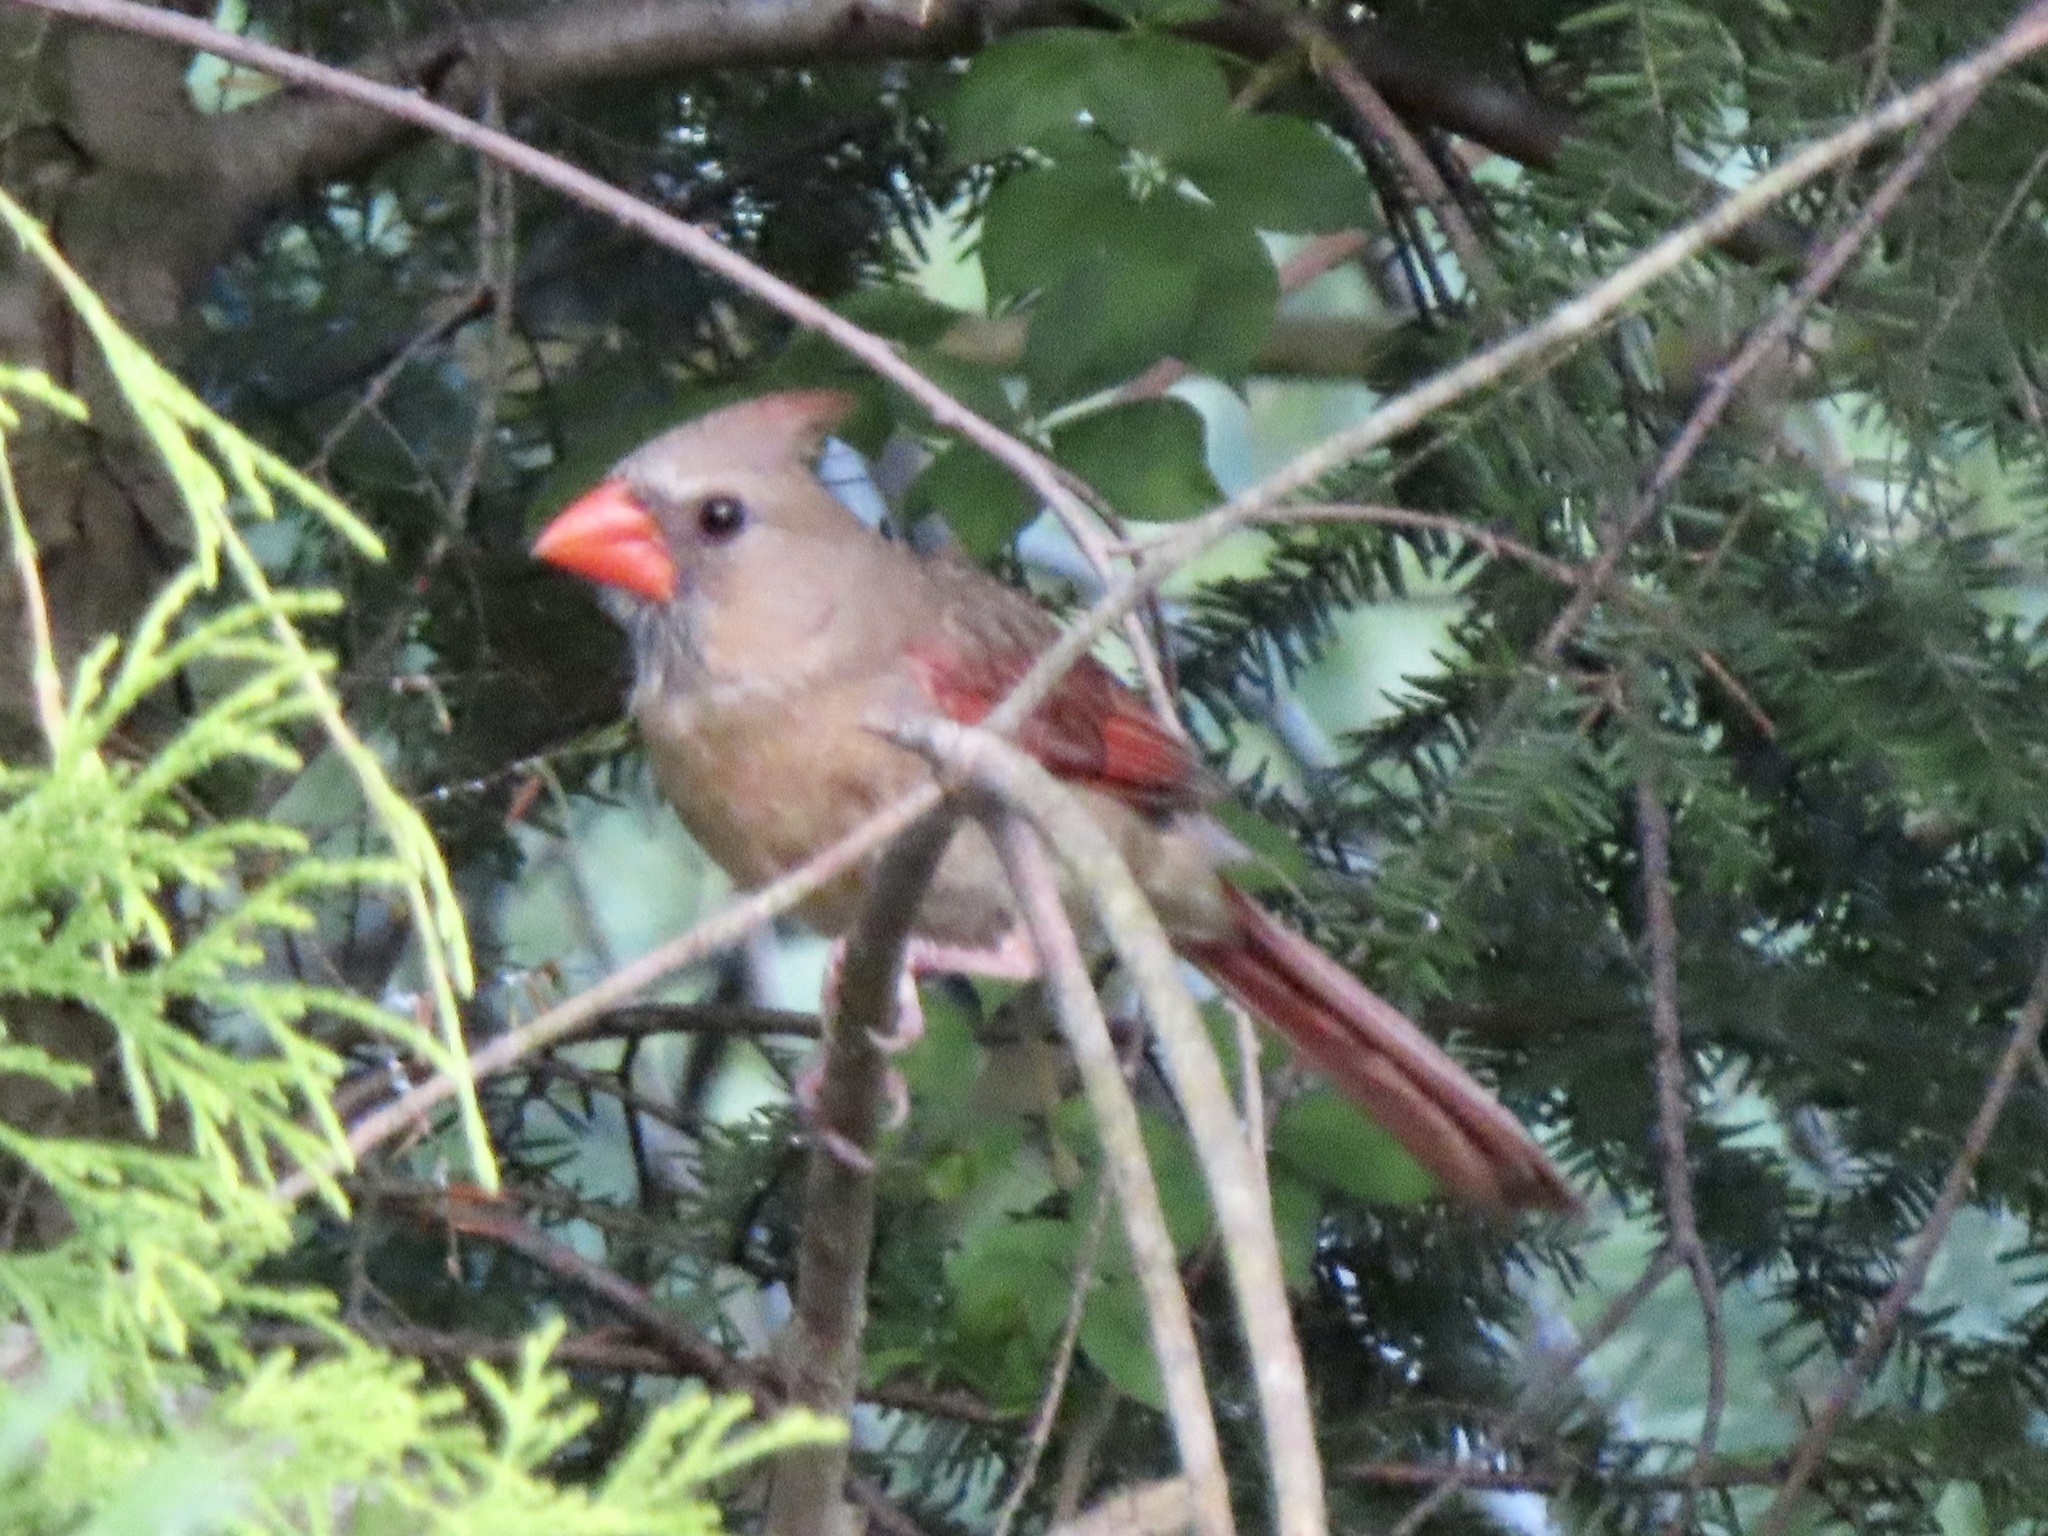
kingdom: Animalia
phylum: Chordata
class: Aves
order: Passeriformes
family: Cardinalidae
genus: Cardinalis
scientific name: Cardinalis cardinalis
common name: Northern cardinal
